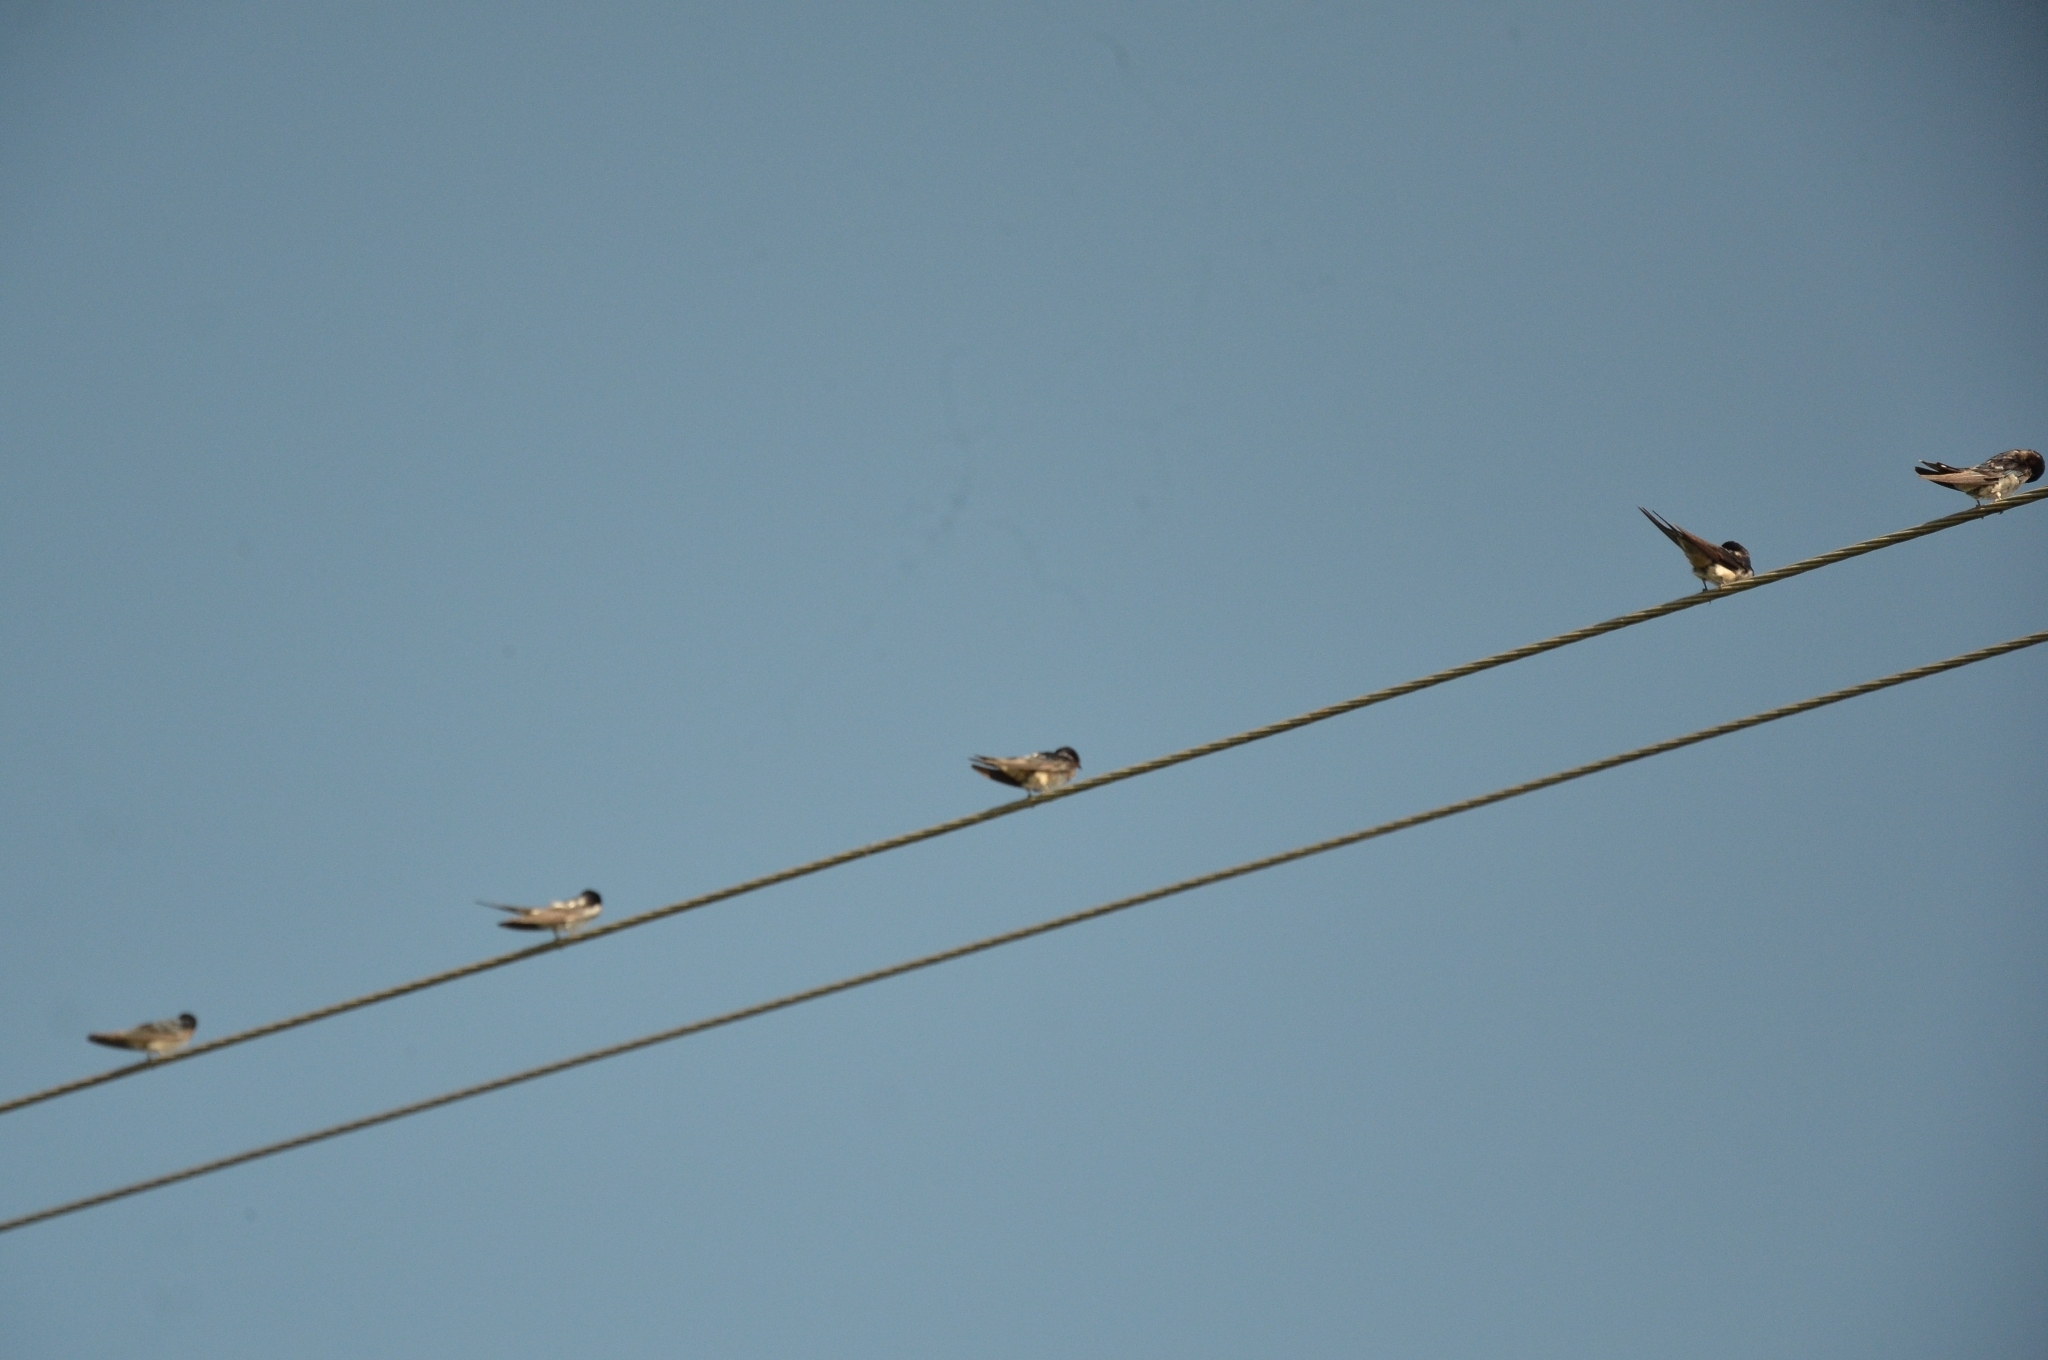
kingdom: Animalia
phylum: Chordata
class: Aves
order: Passeriformes
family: Hirundinidae
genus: Hirundo
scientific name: Hirundo rustica
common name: Barn swallow
